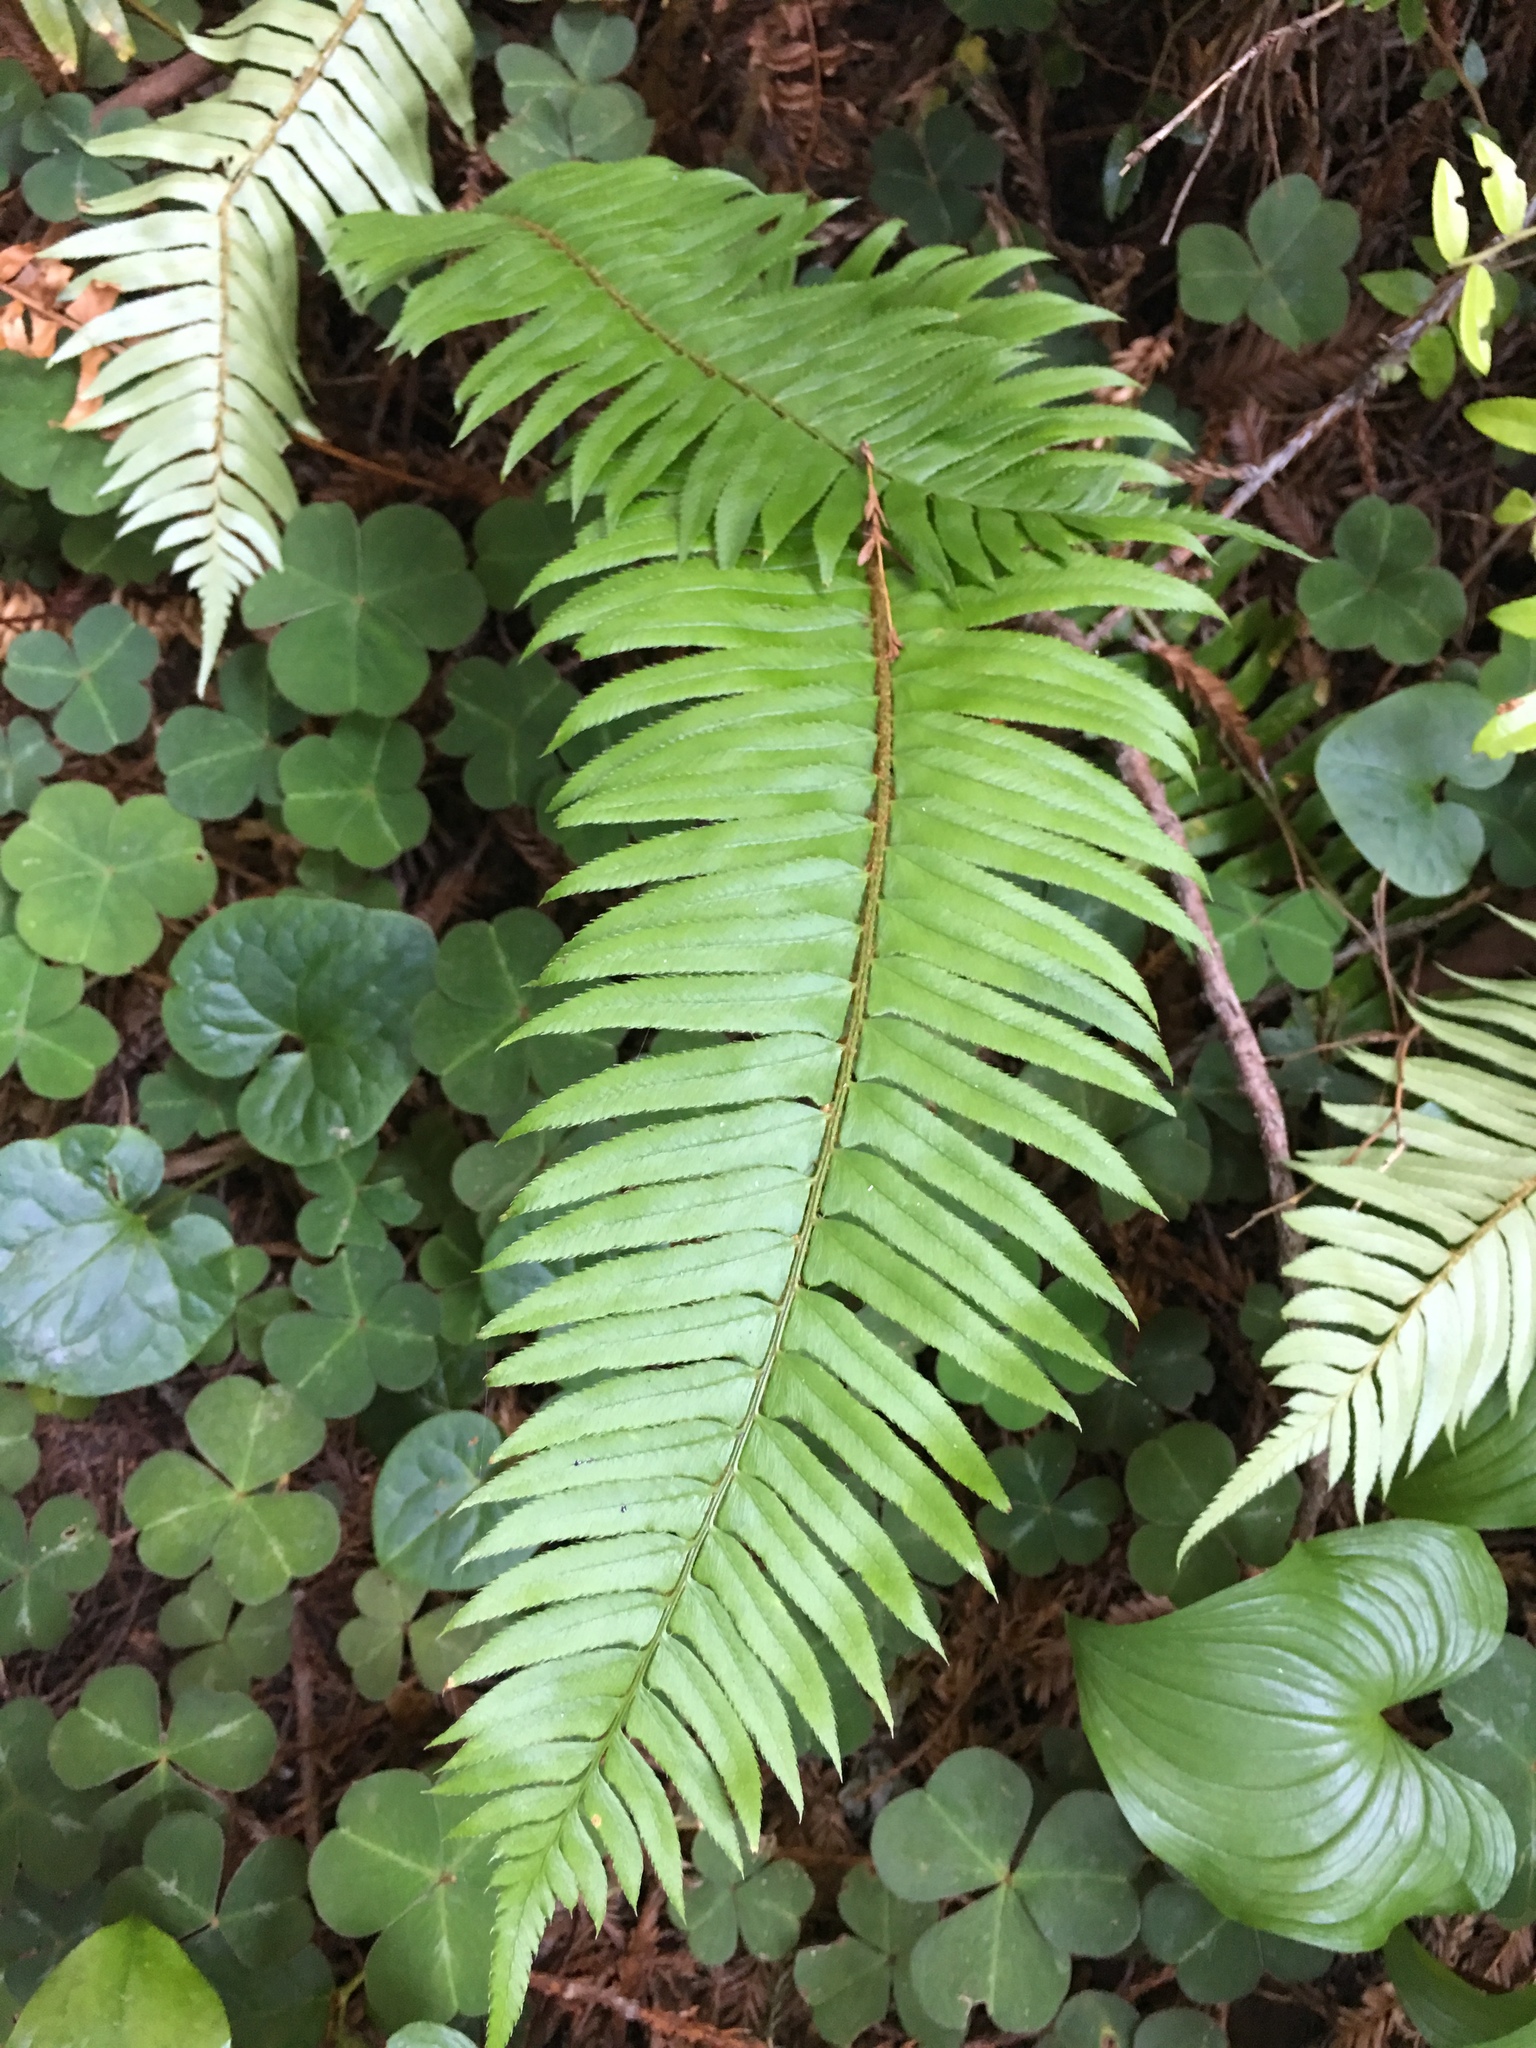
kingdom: Plantae
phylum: Tracheophyta
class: Polypodiopsida
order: Polypodiales
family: Dryopteridaceae
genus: Polystichum
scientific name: Polystichum munitum
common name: Western sword-fern
